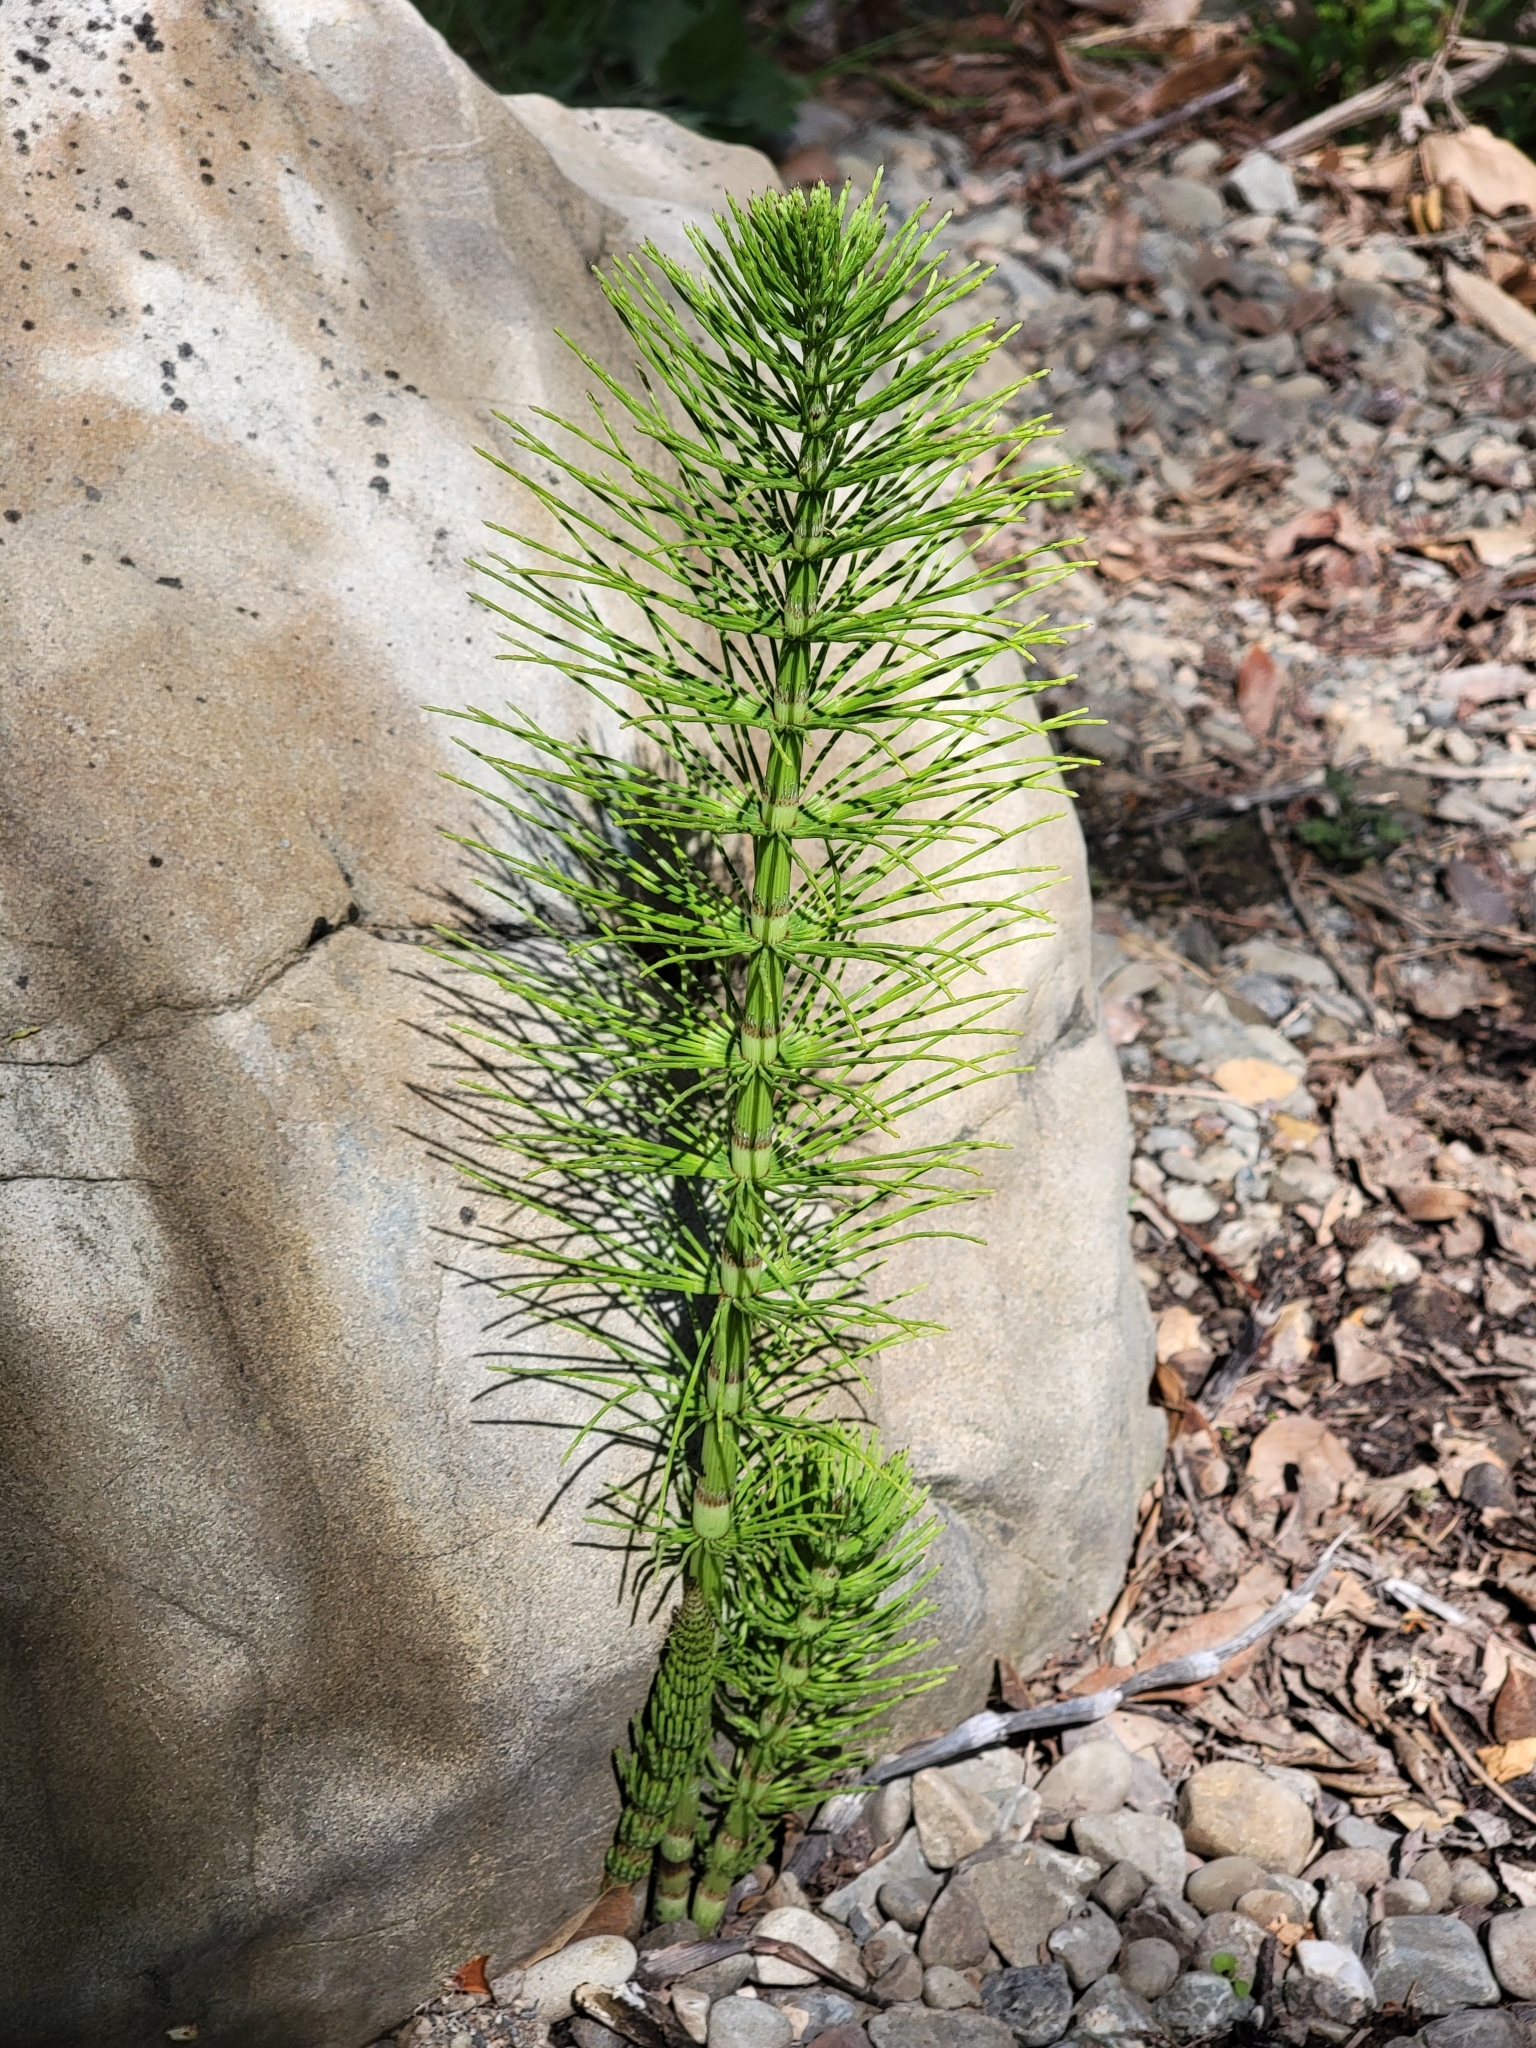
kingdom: Plantae
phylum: Tracheophyta
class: Polypodiopsida
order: Equisetales
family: Equisetaceae
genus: Equisetum
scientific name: Equisetum braunii
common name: Braun's horsetail
